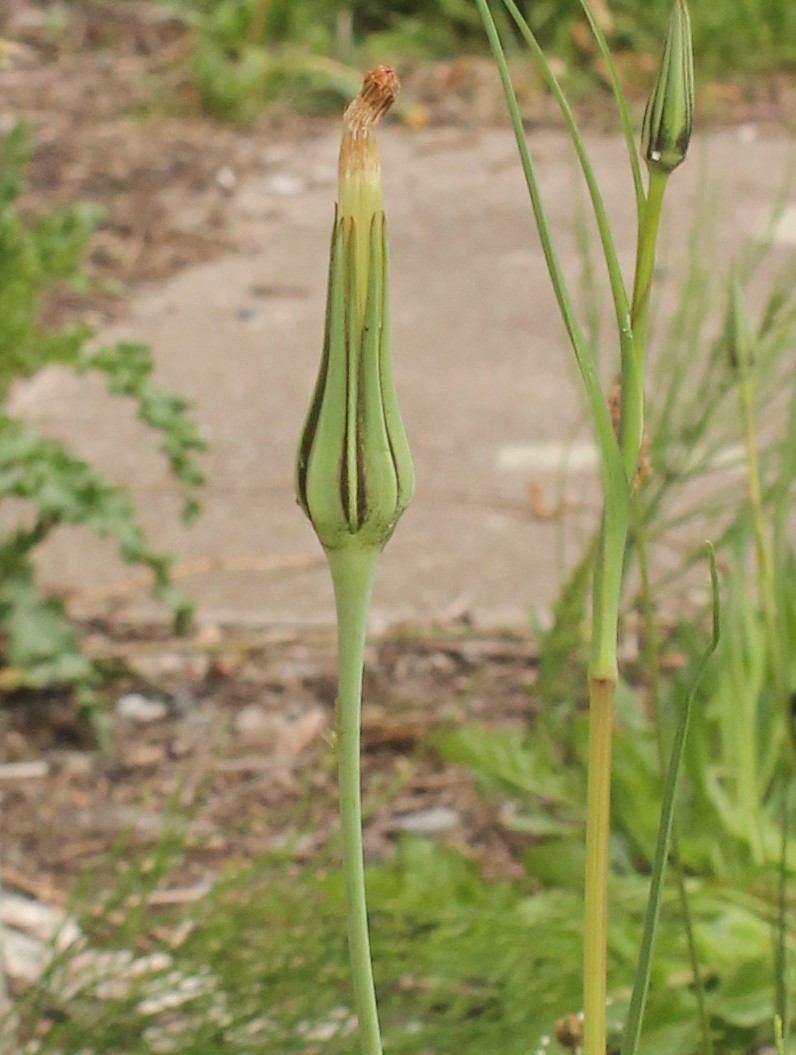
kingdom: Plantae
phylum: Tracheophyta
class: Magnoliopsida
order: Asterales
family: Asteraceae
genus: Tragopogon
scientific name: Tragopogon pratensis
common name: Goat's-beard
